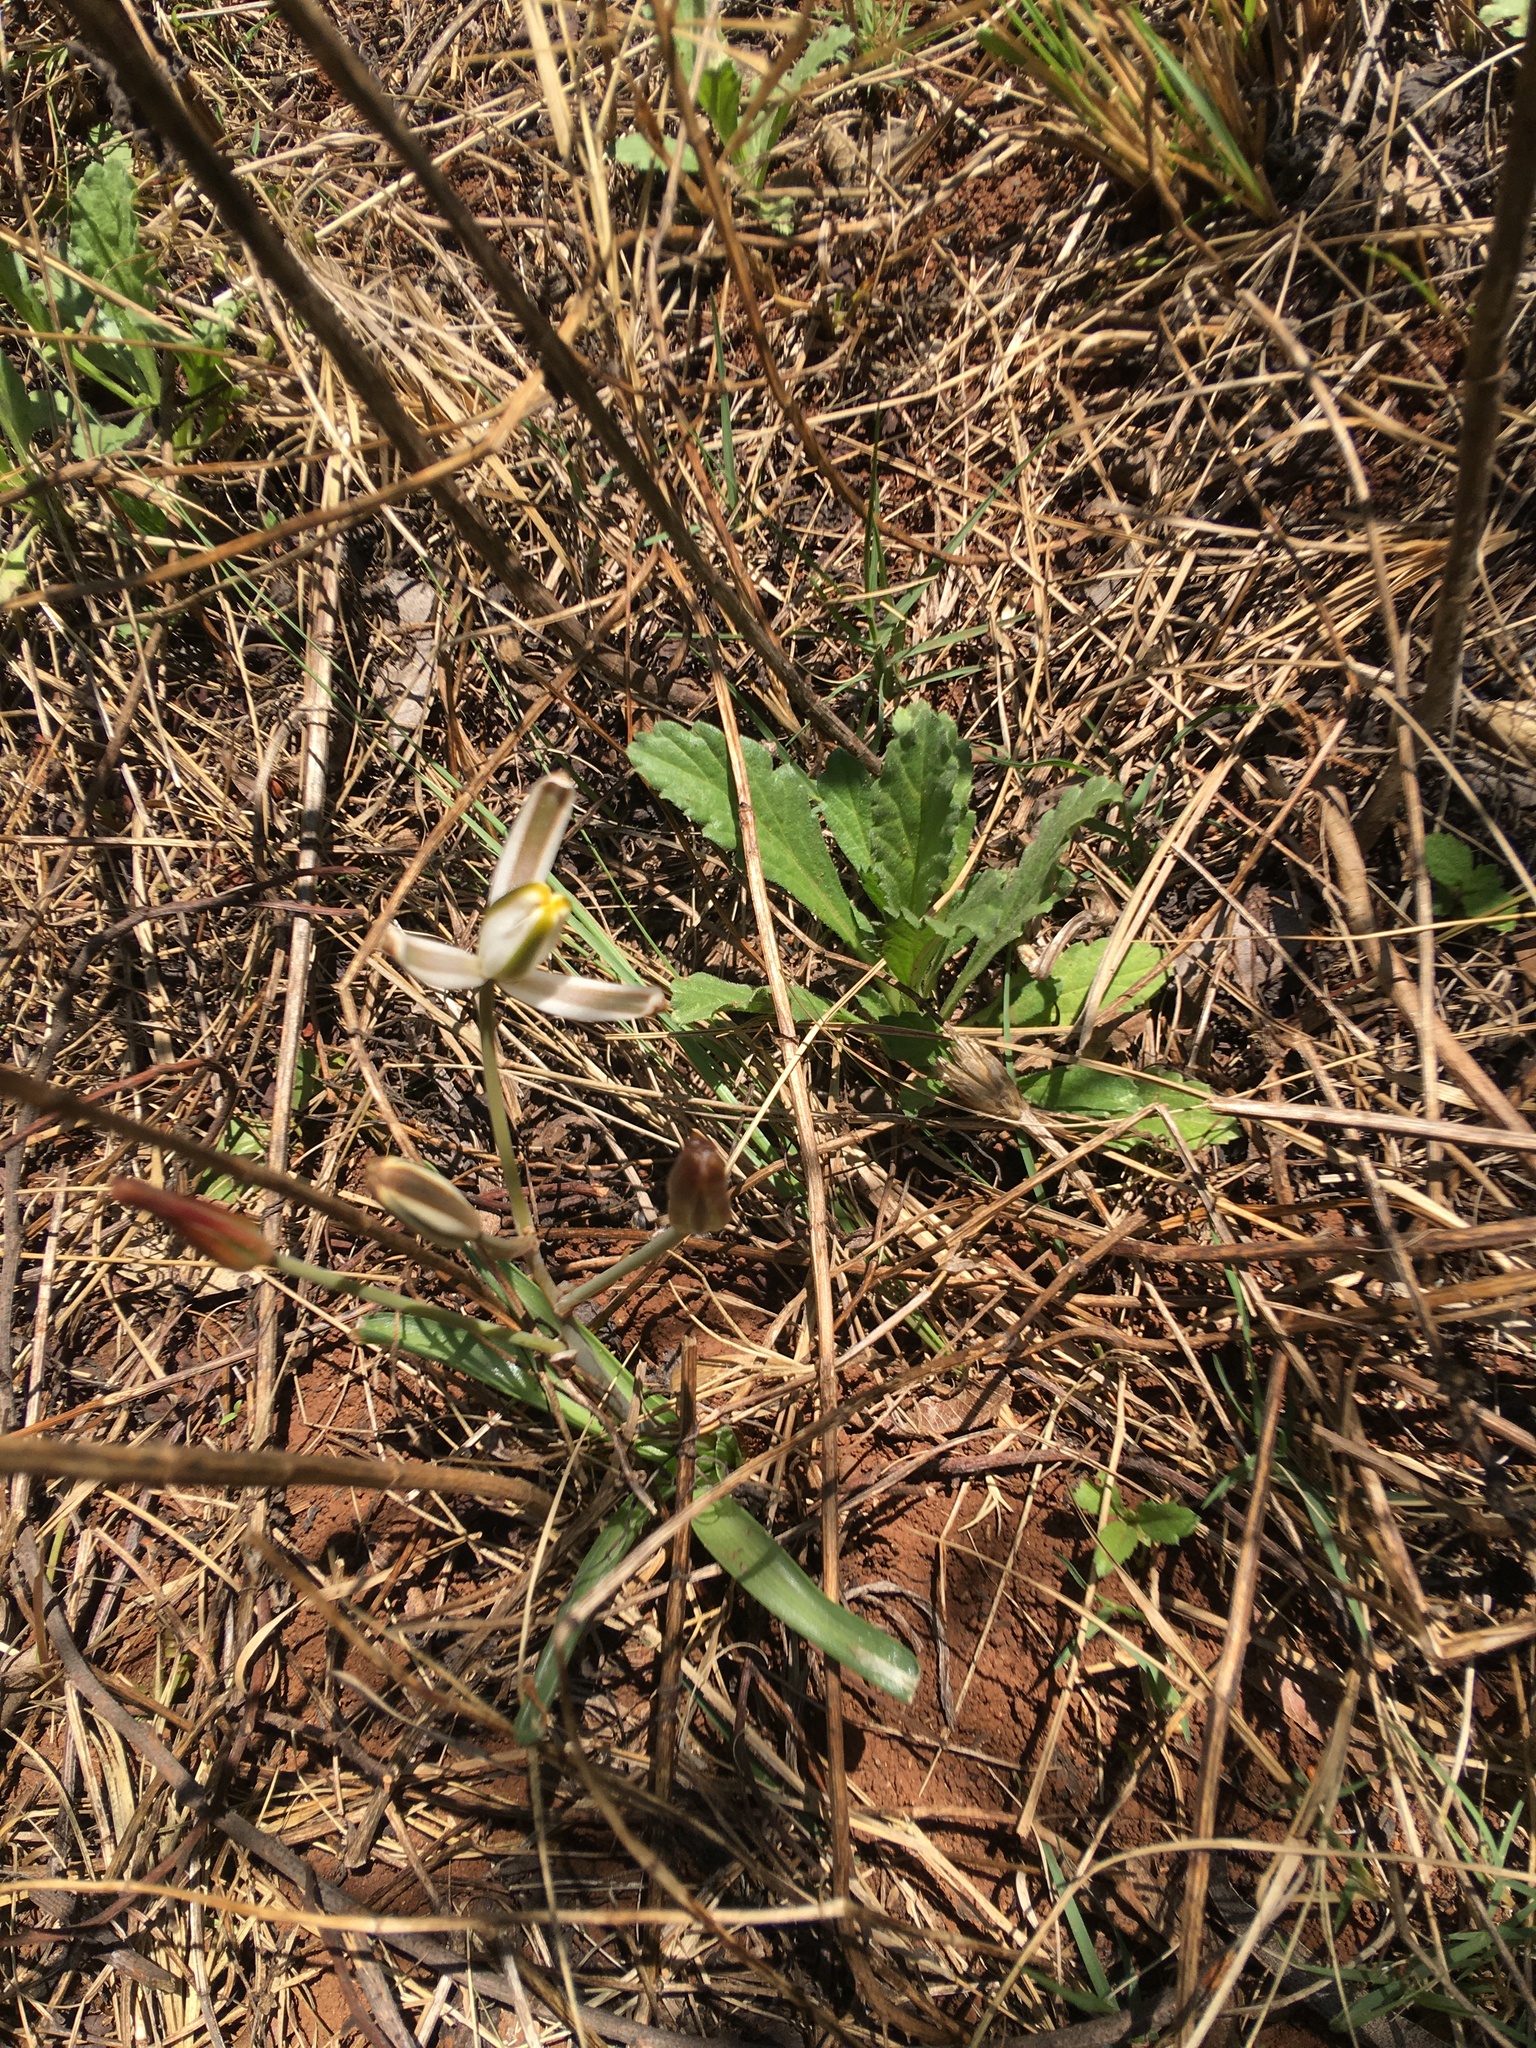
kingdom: Plantae
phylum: Tracheophyta
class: Liliopsida
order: Asparagales
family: Asparagaceae
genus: Albuca
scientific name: Albuca setosa
